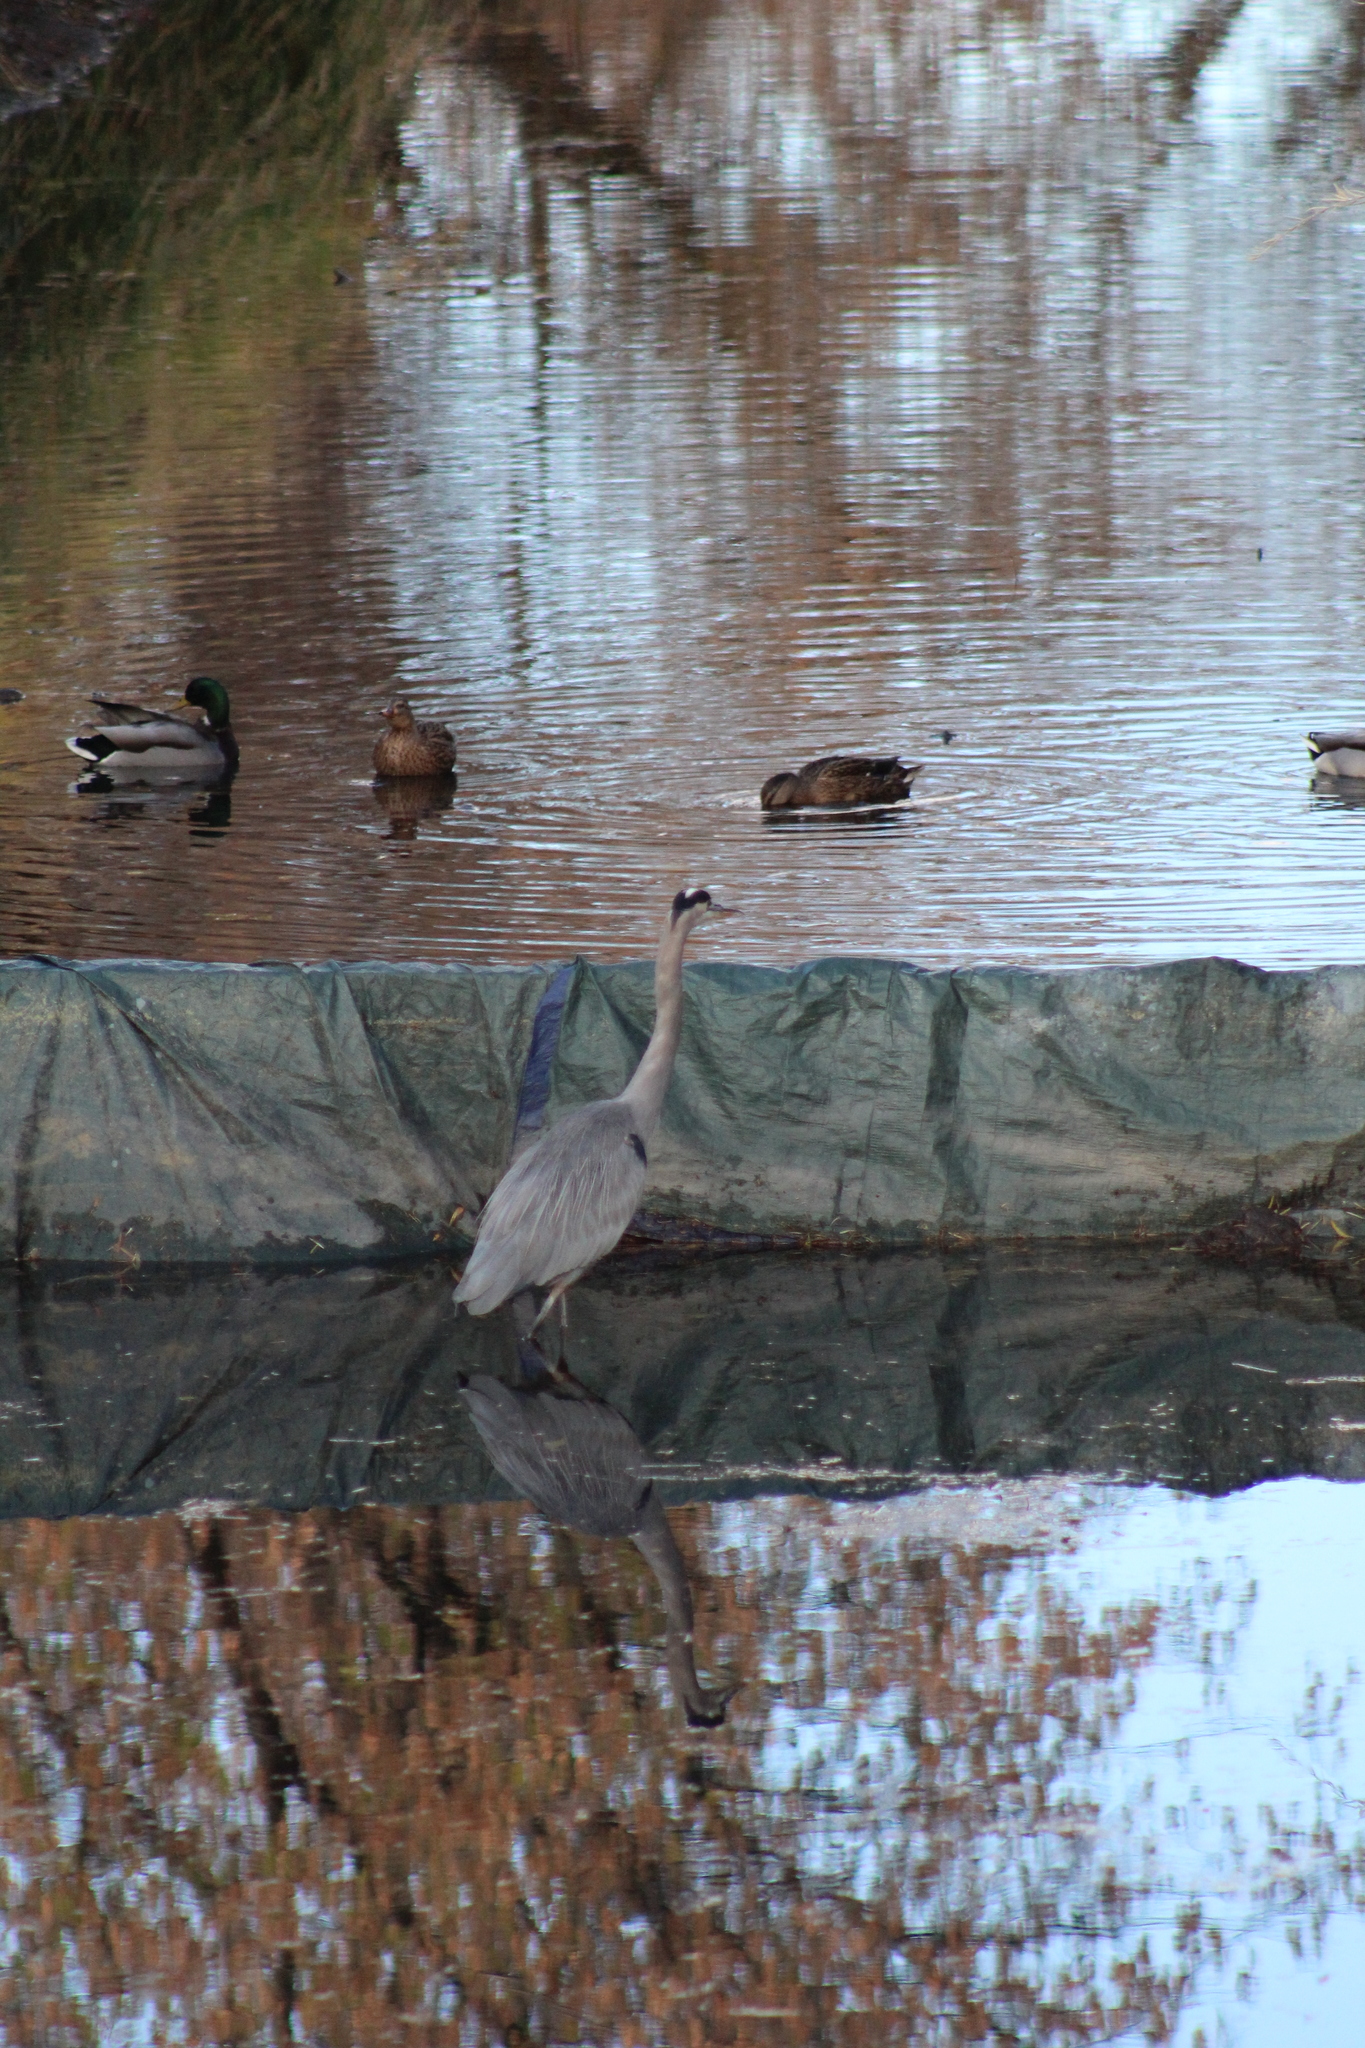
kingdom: Animalia
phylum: Chordata
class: Aves
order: Pelecaniformes
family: Ardeidae
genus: Ardea
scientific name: Ardea herodias
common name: Great blue heron
